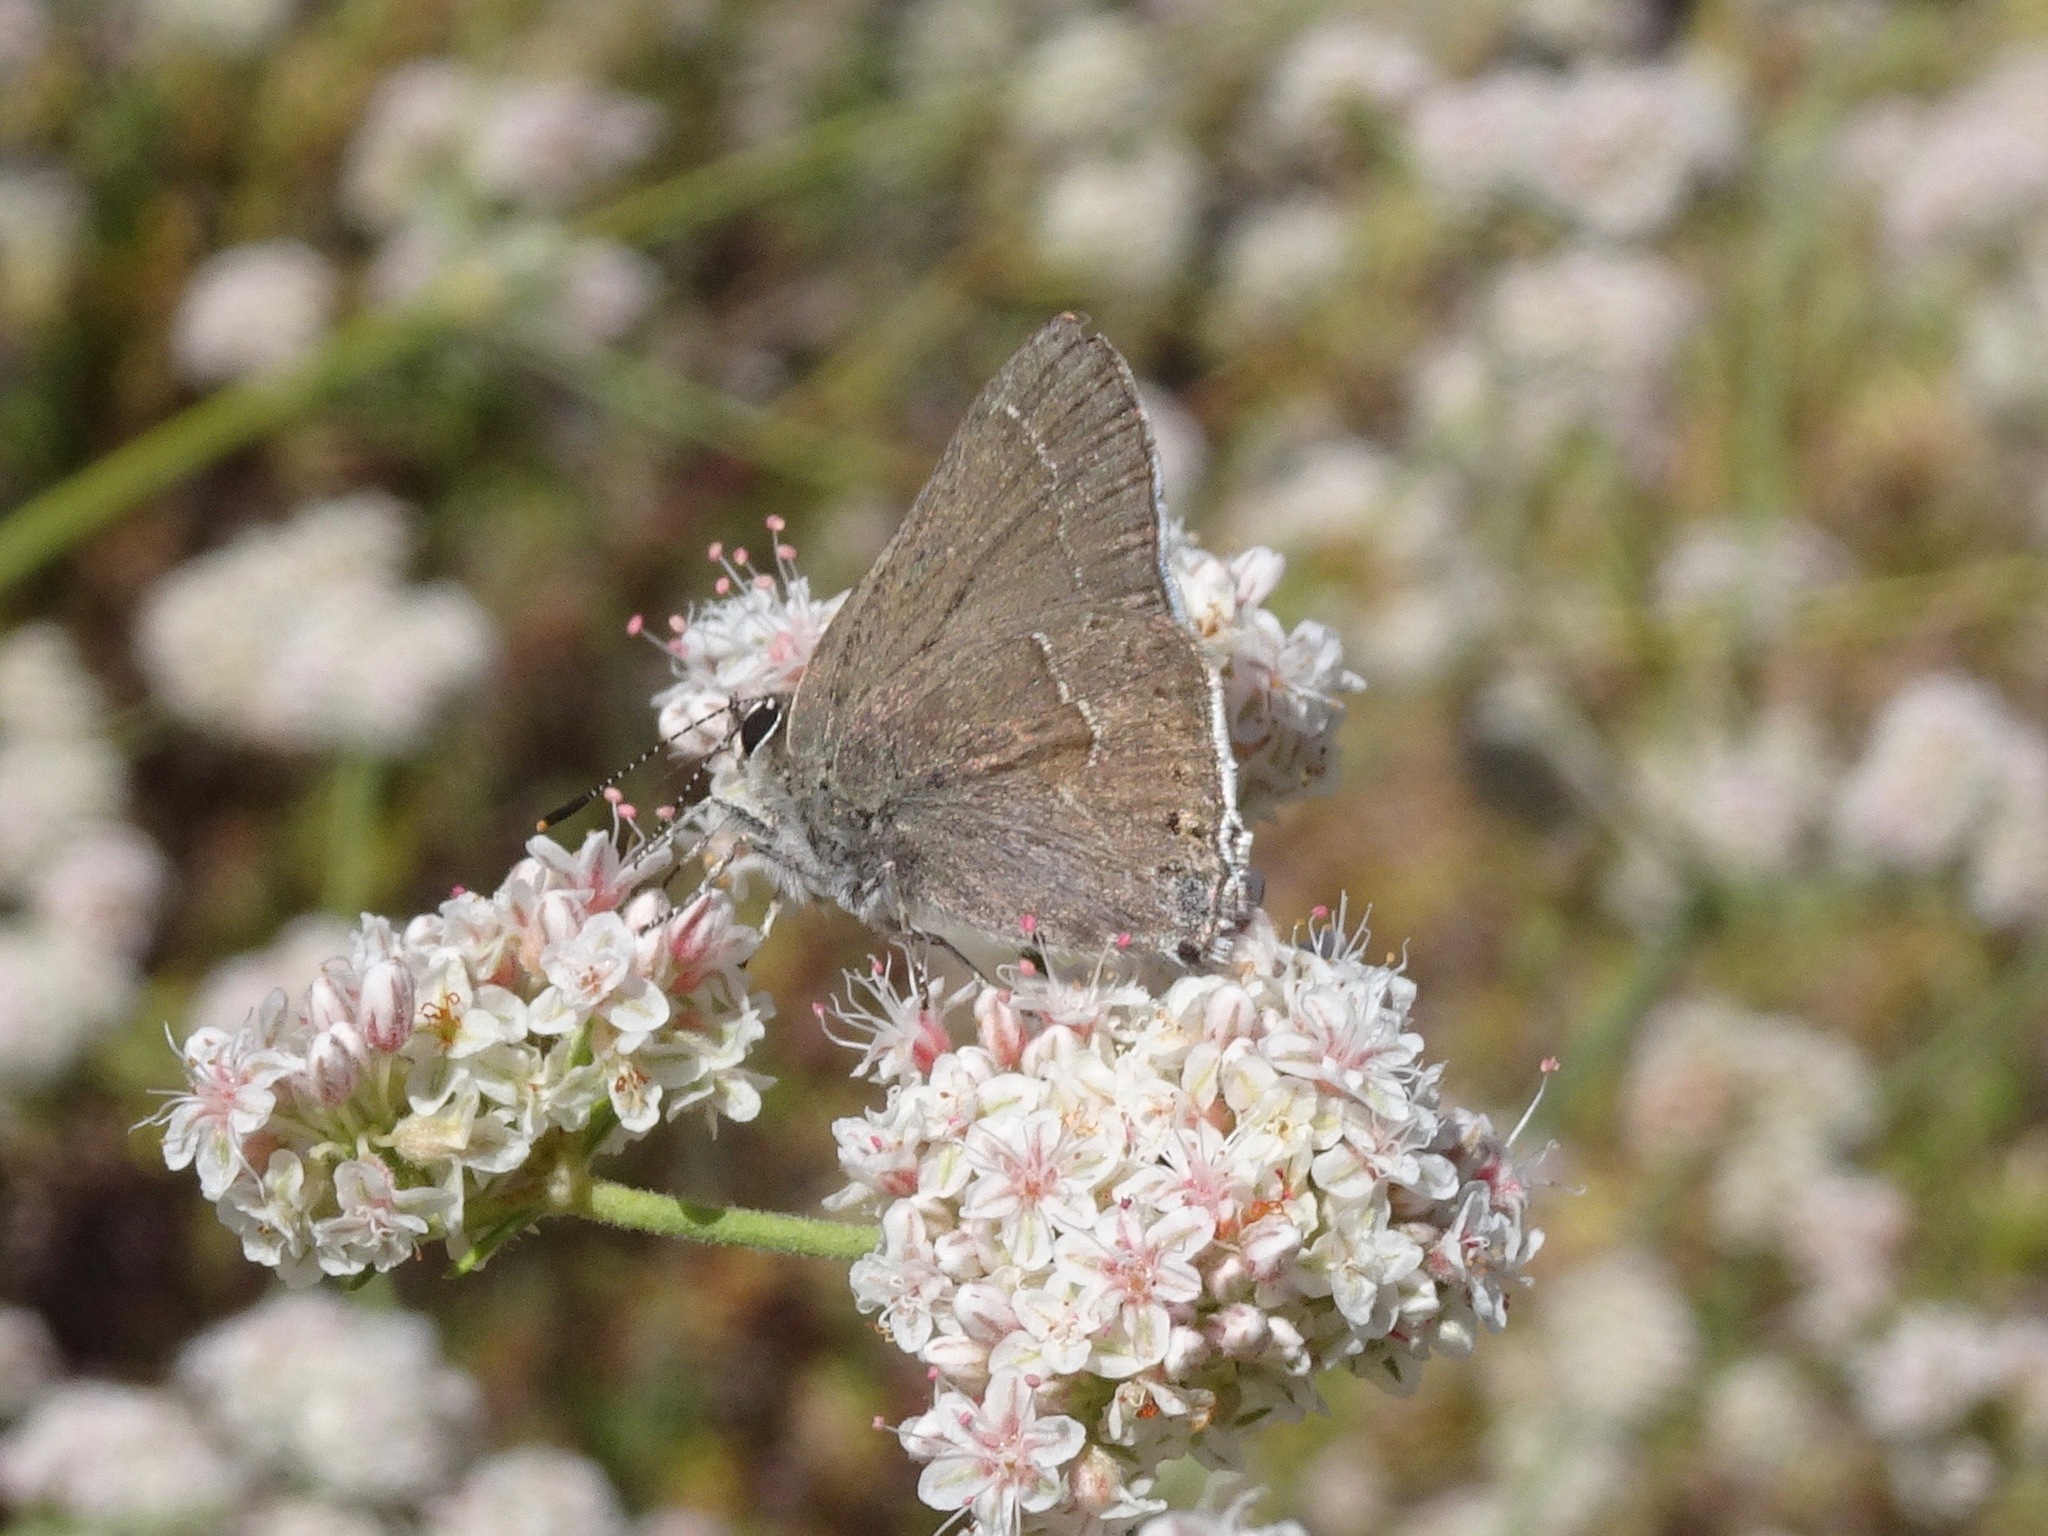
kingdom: Animalia
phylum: Arthropoda
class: Insecta
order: Lepidoptera
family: Lycaenidae
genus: Thecla
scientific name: Thecla tetra
